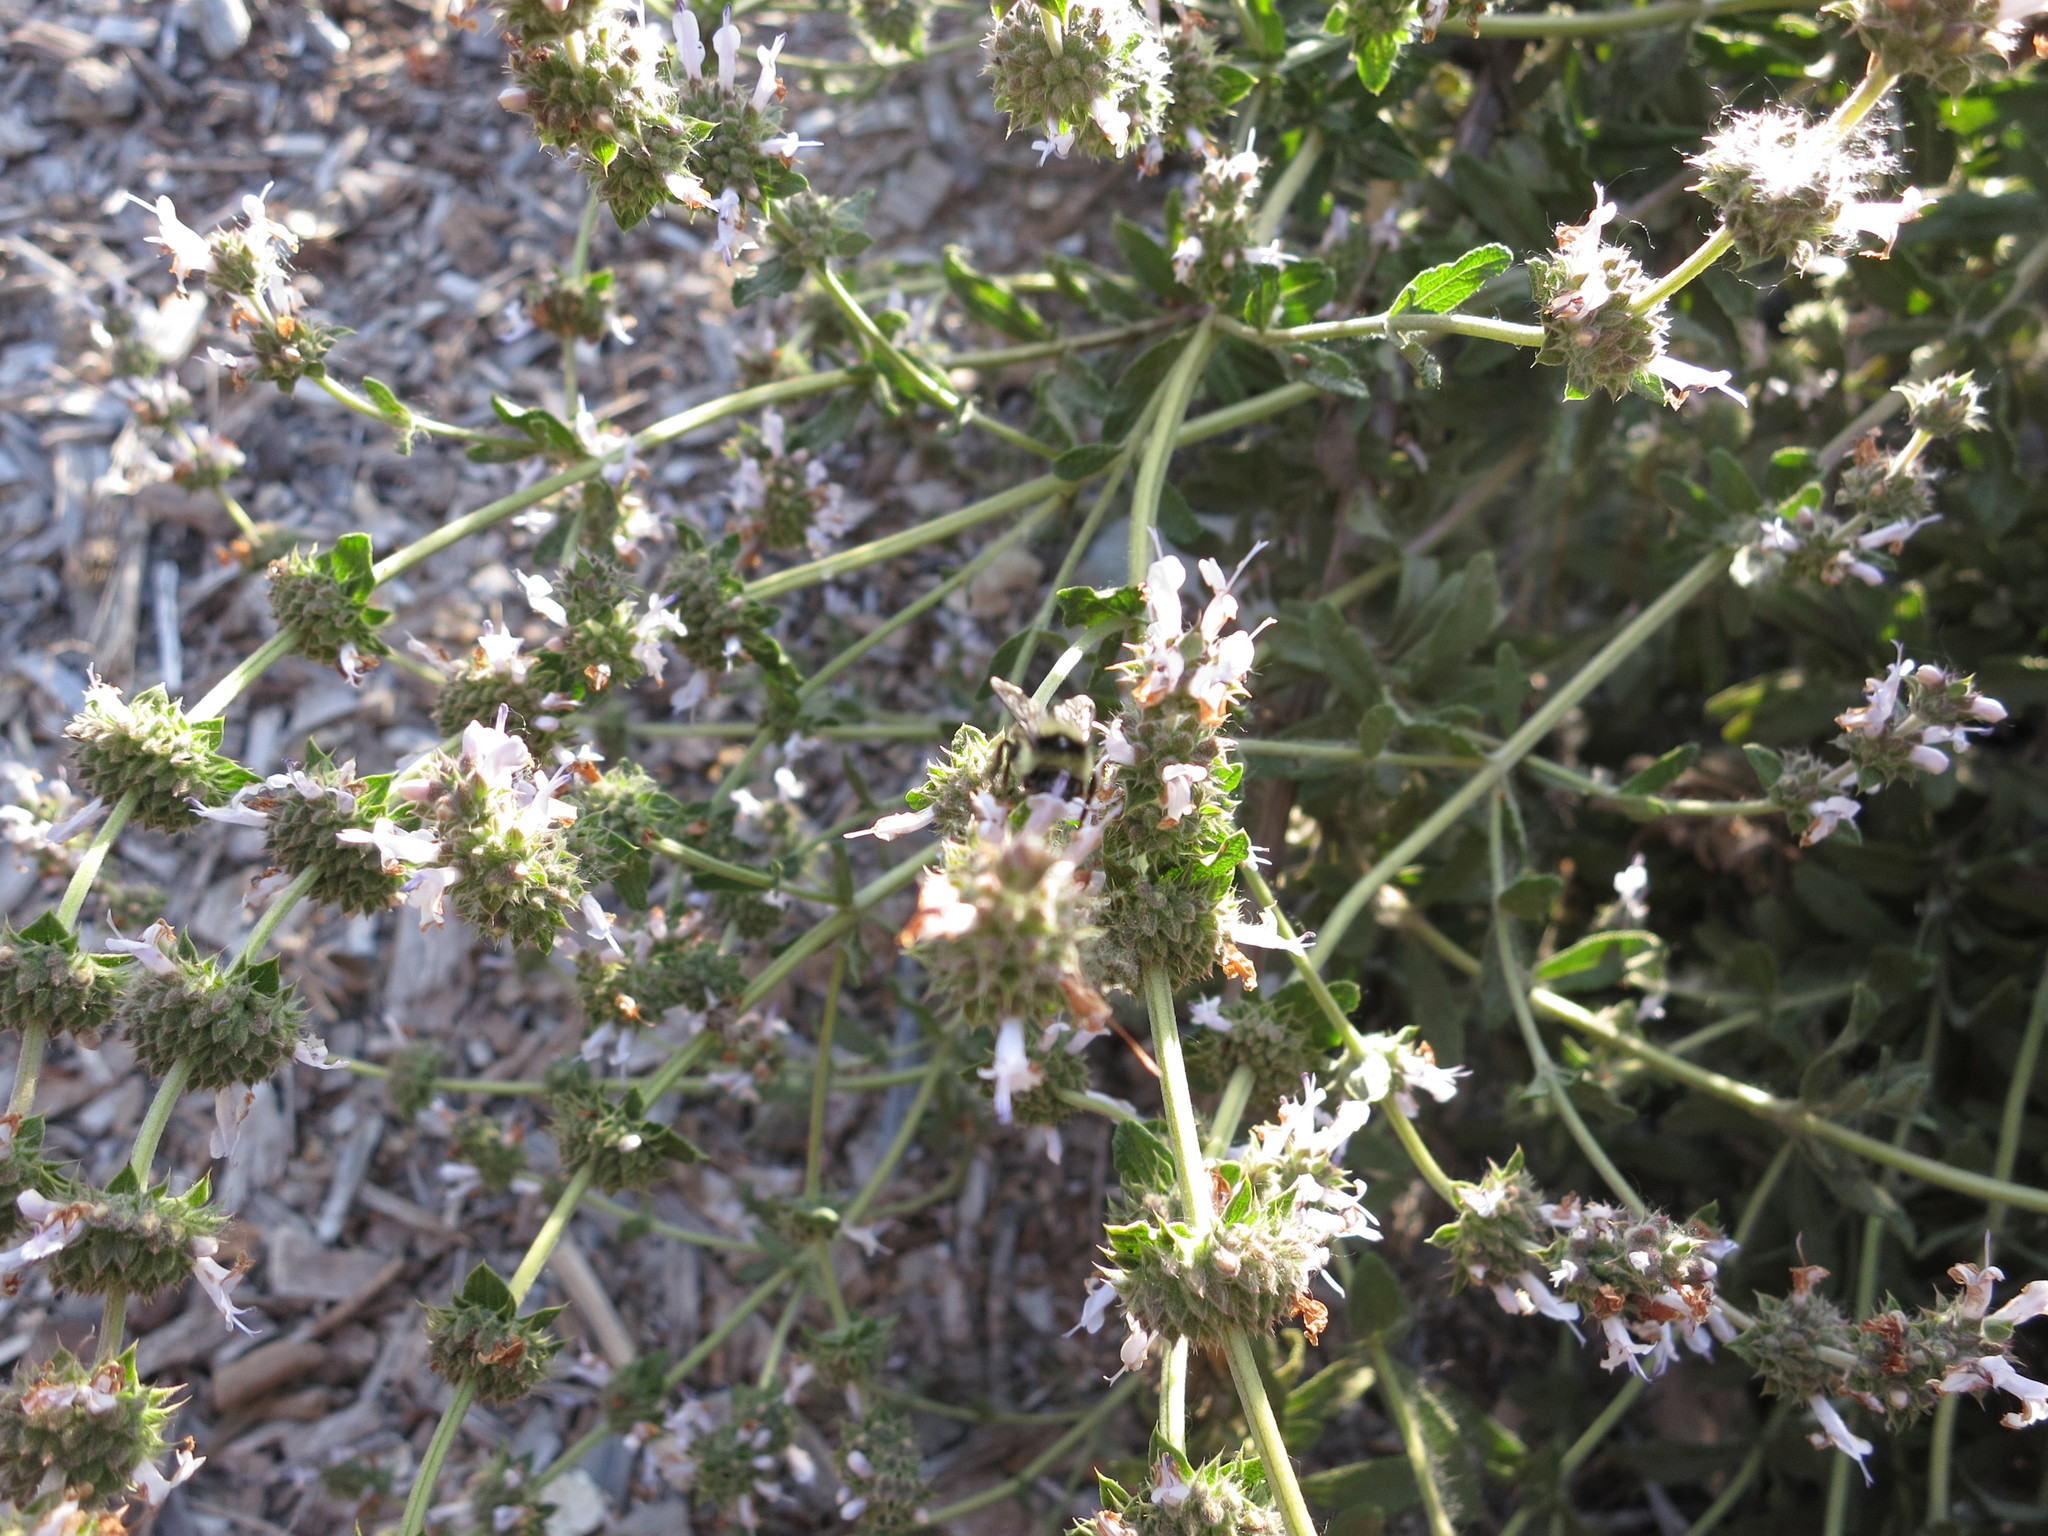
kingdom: Plantae
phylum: Tracheophyta
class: Magnoliopsida
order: Lamiales
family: Lamiaceae
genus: Salvia
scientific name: Salvia mellifera
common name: Black sage
